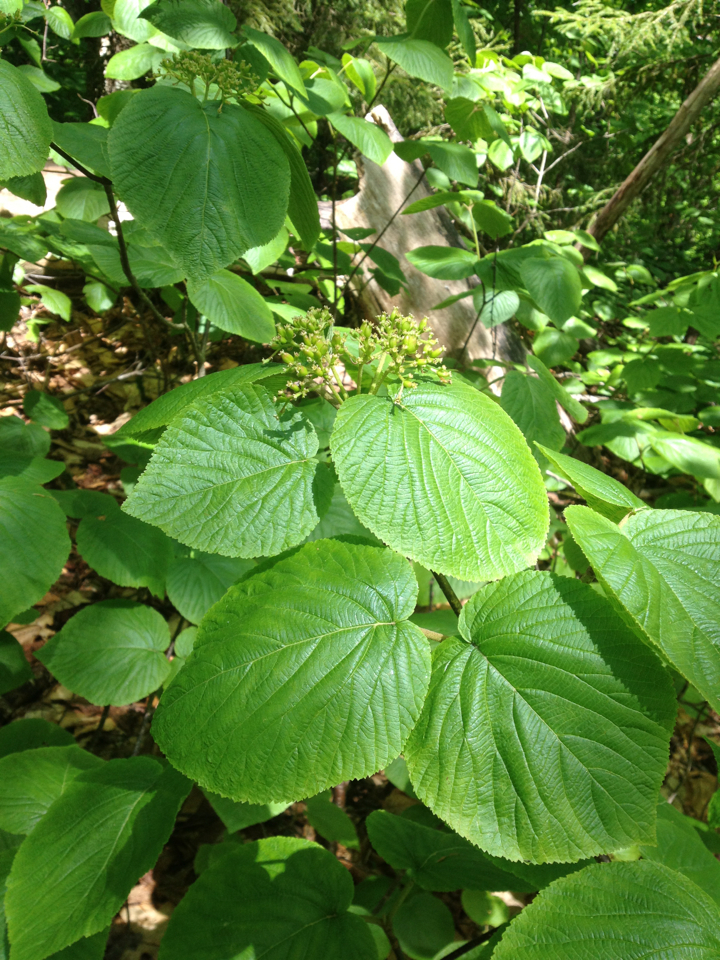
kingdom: Plantae
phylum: Tracheophyta
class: Magnoliopsida
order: Dipsacales
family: Viburnaceae
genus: Viburnum
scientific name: Viburnum lantanoides
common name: Hobblebush
